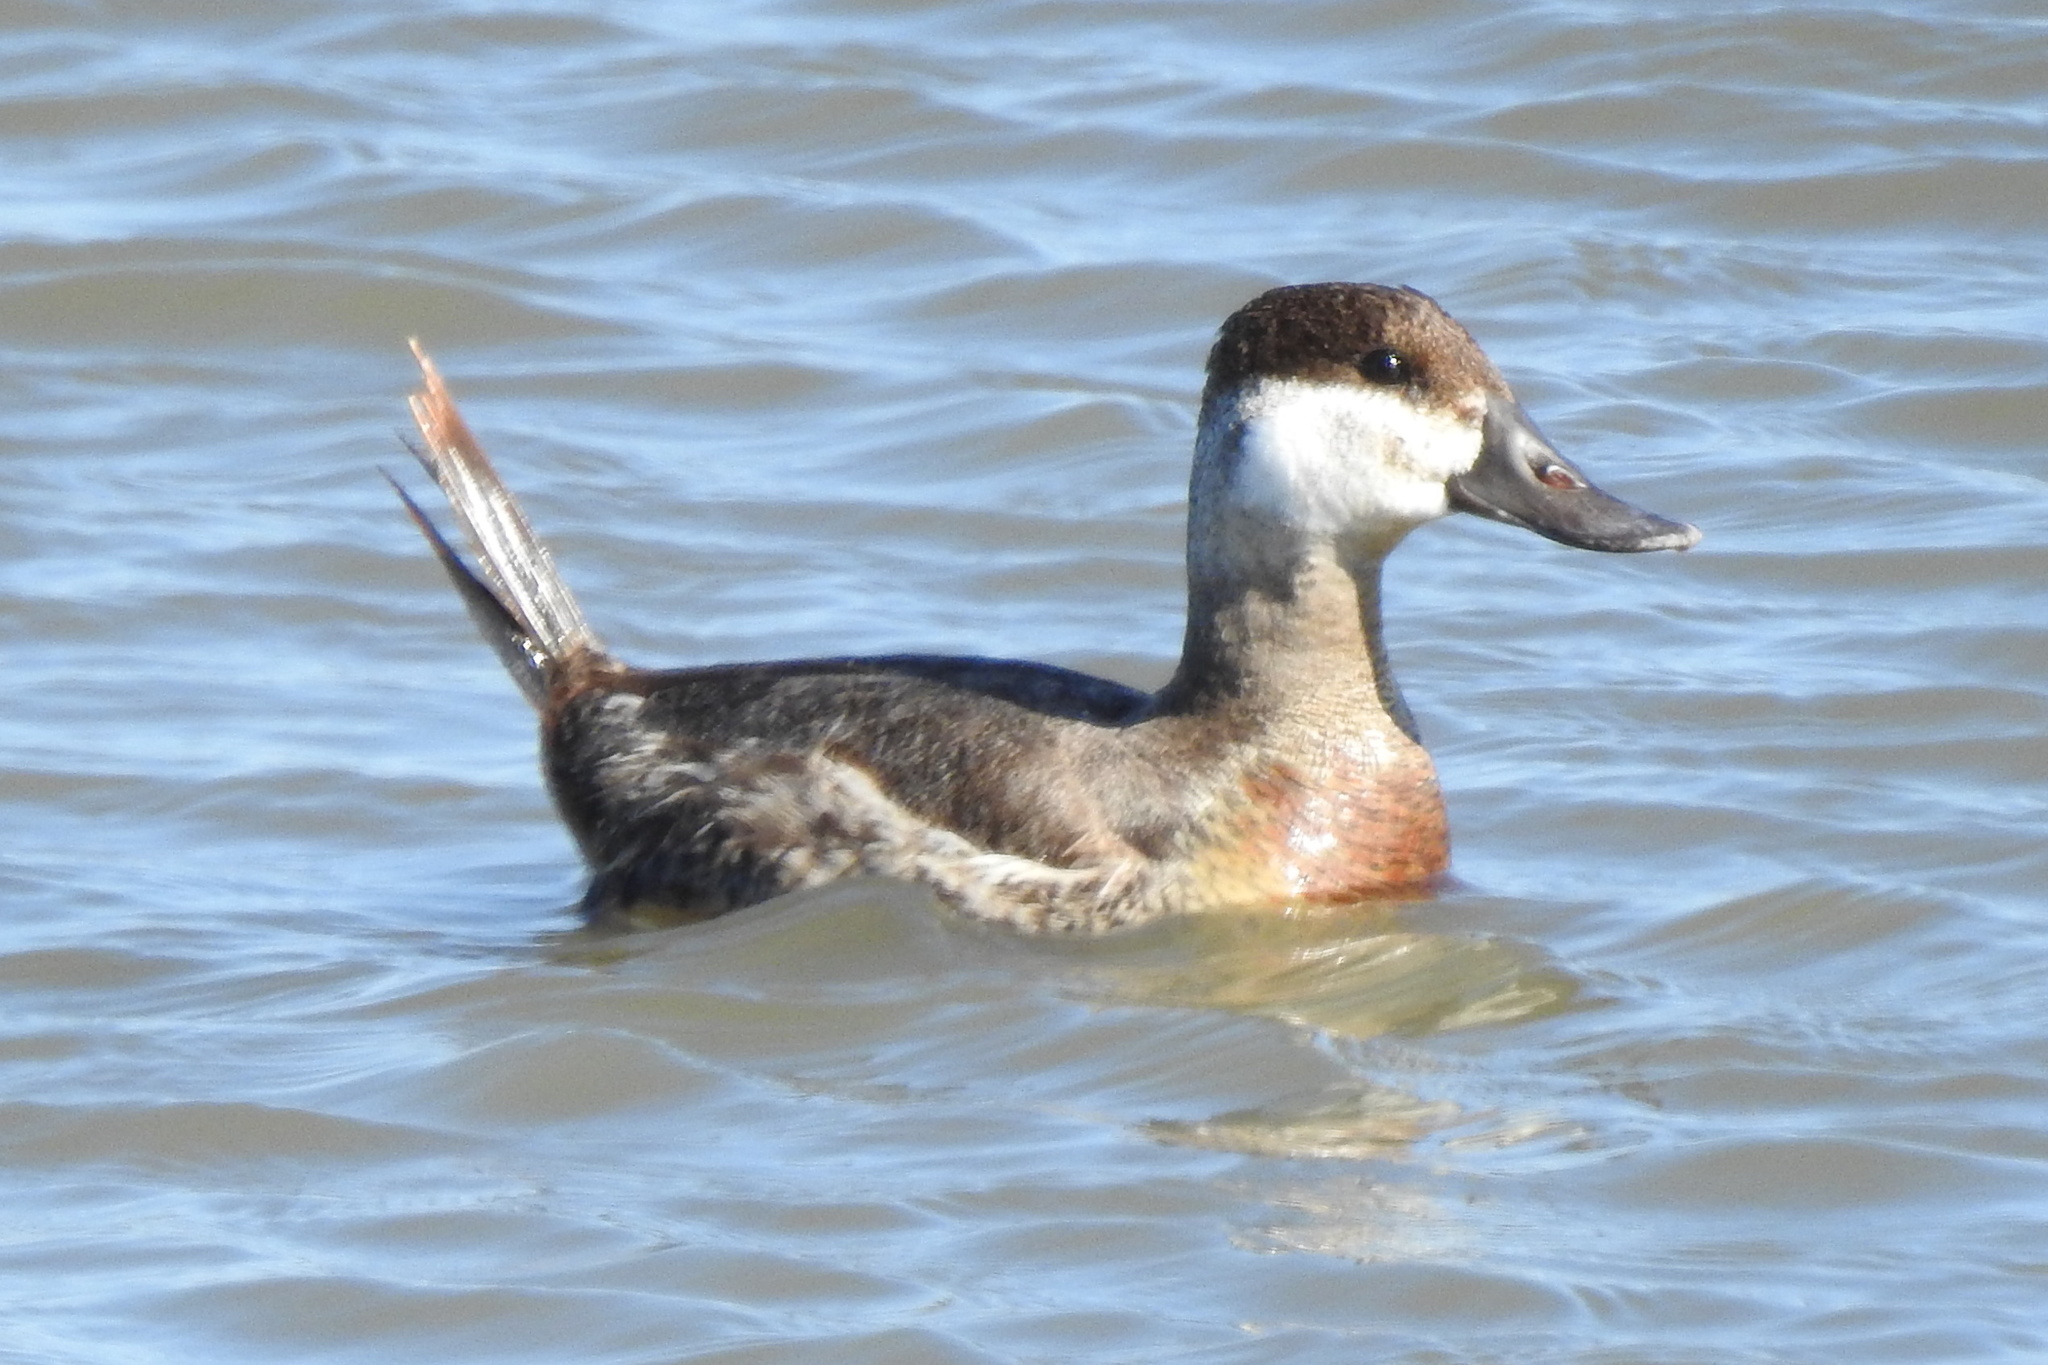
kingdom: Animalia
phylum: Chordata
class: Aves
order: Anseriformes
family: Anatidae
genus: Oxyura
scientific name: Oxyura jamaicensis
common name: Ruddy duck
